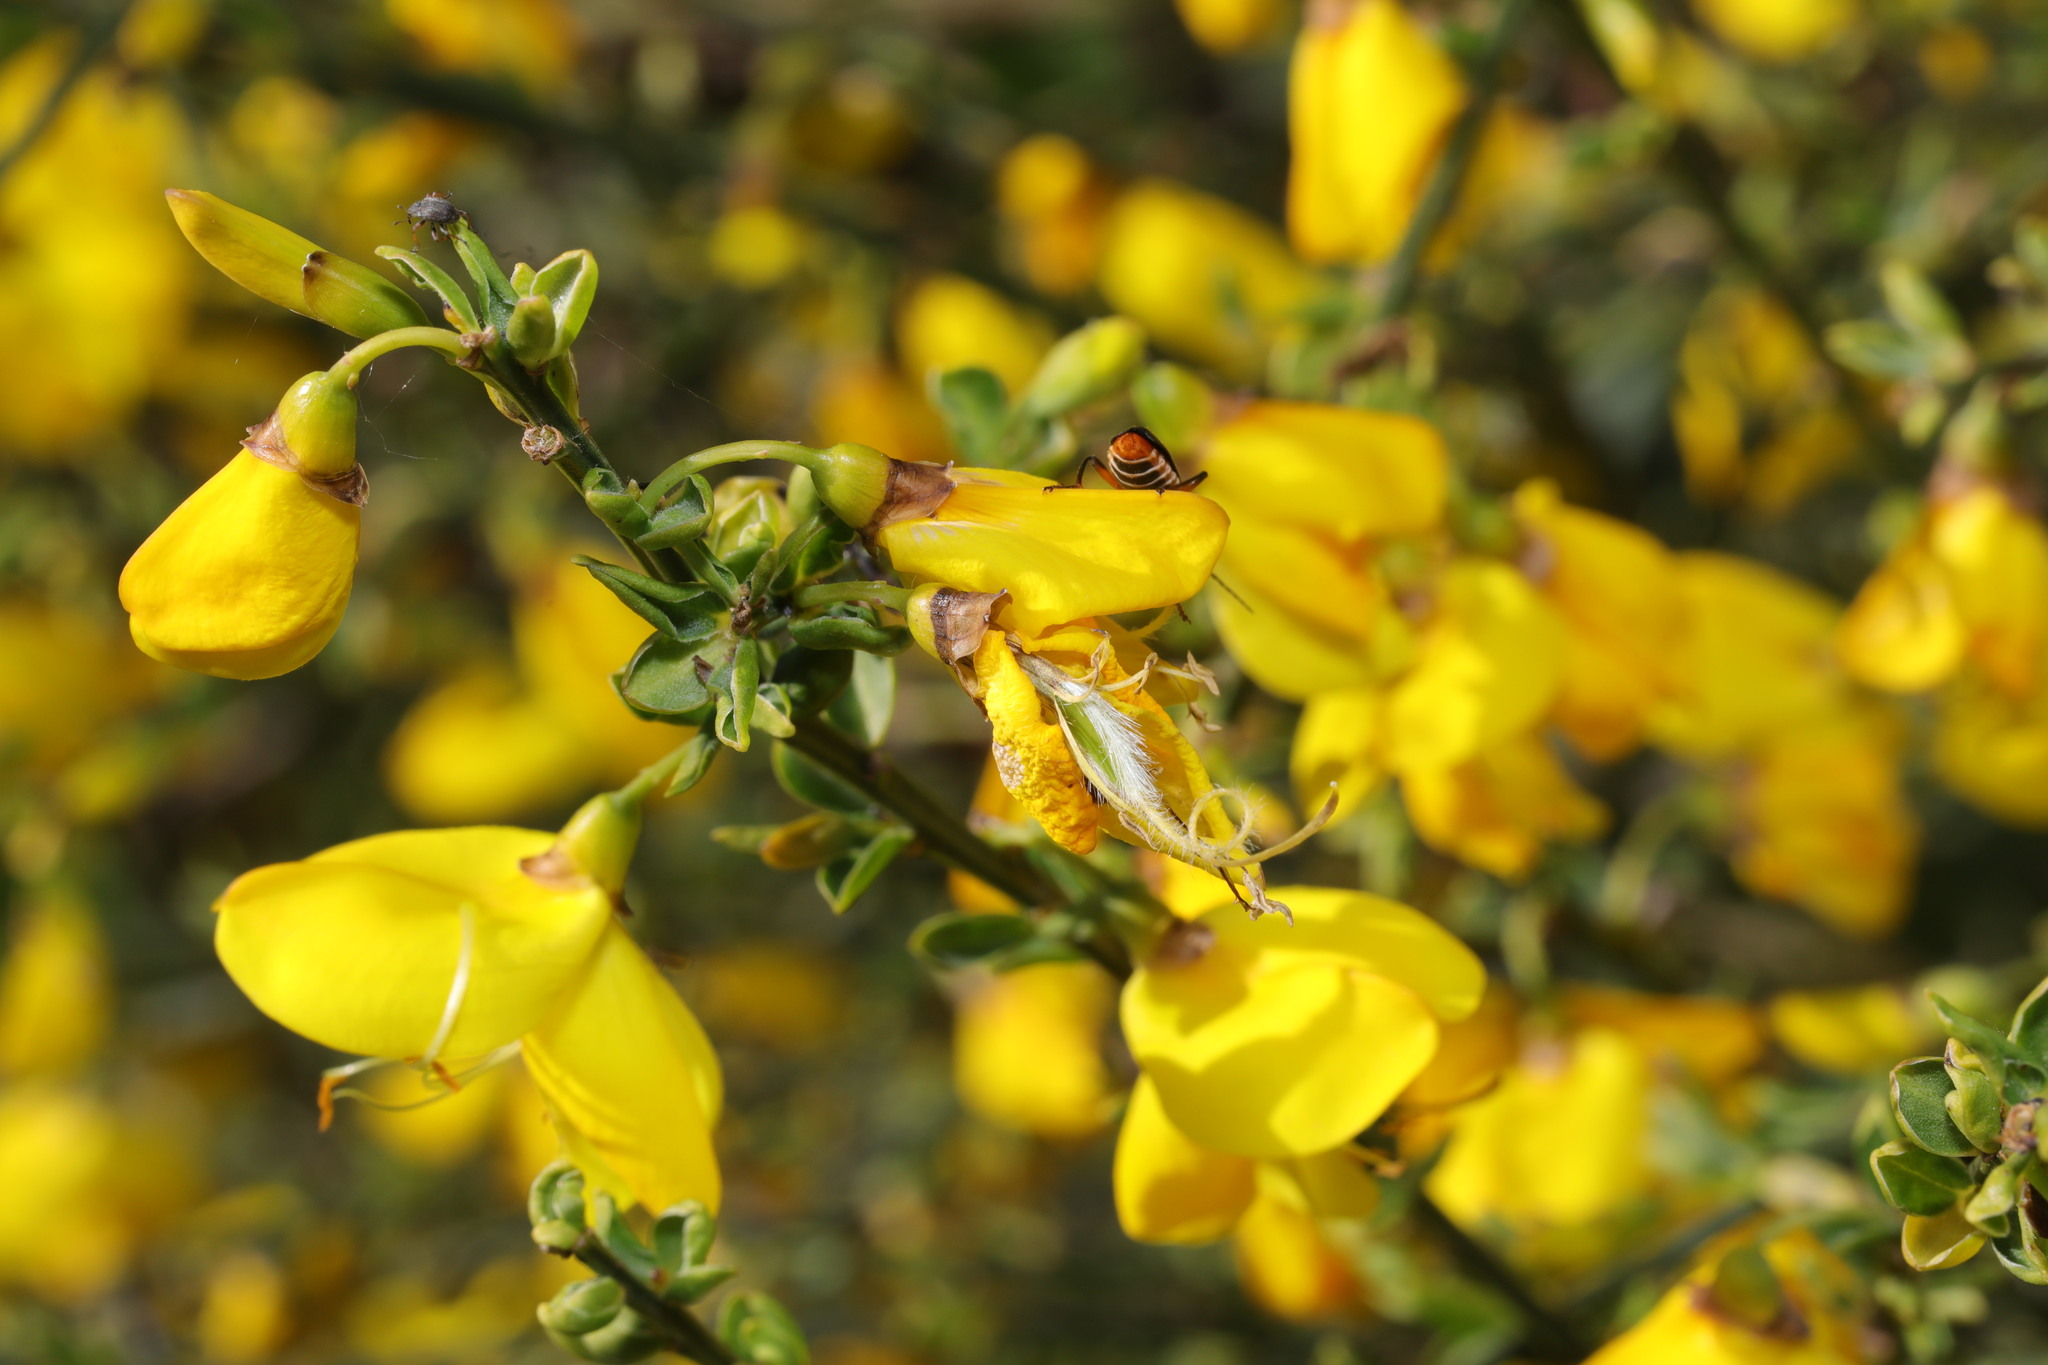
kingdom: Plantae
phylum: Tracheophyta
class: Magnoliopsida
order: Fabales
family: Fabaceae
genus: Cytisus
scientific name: Cytisus scoparius
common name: Scotch broom
